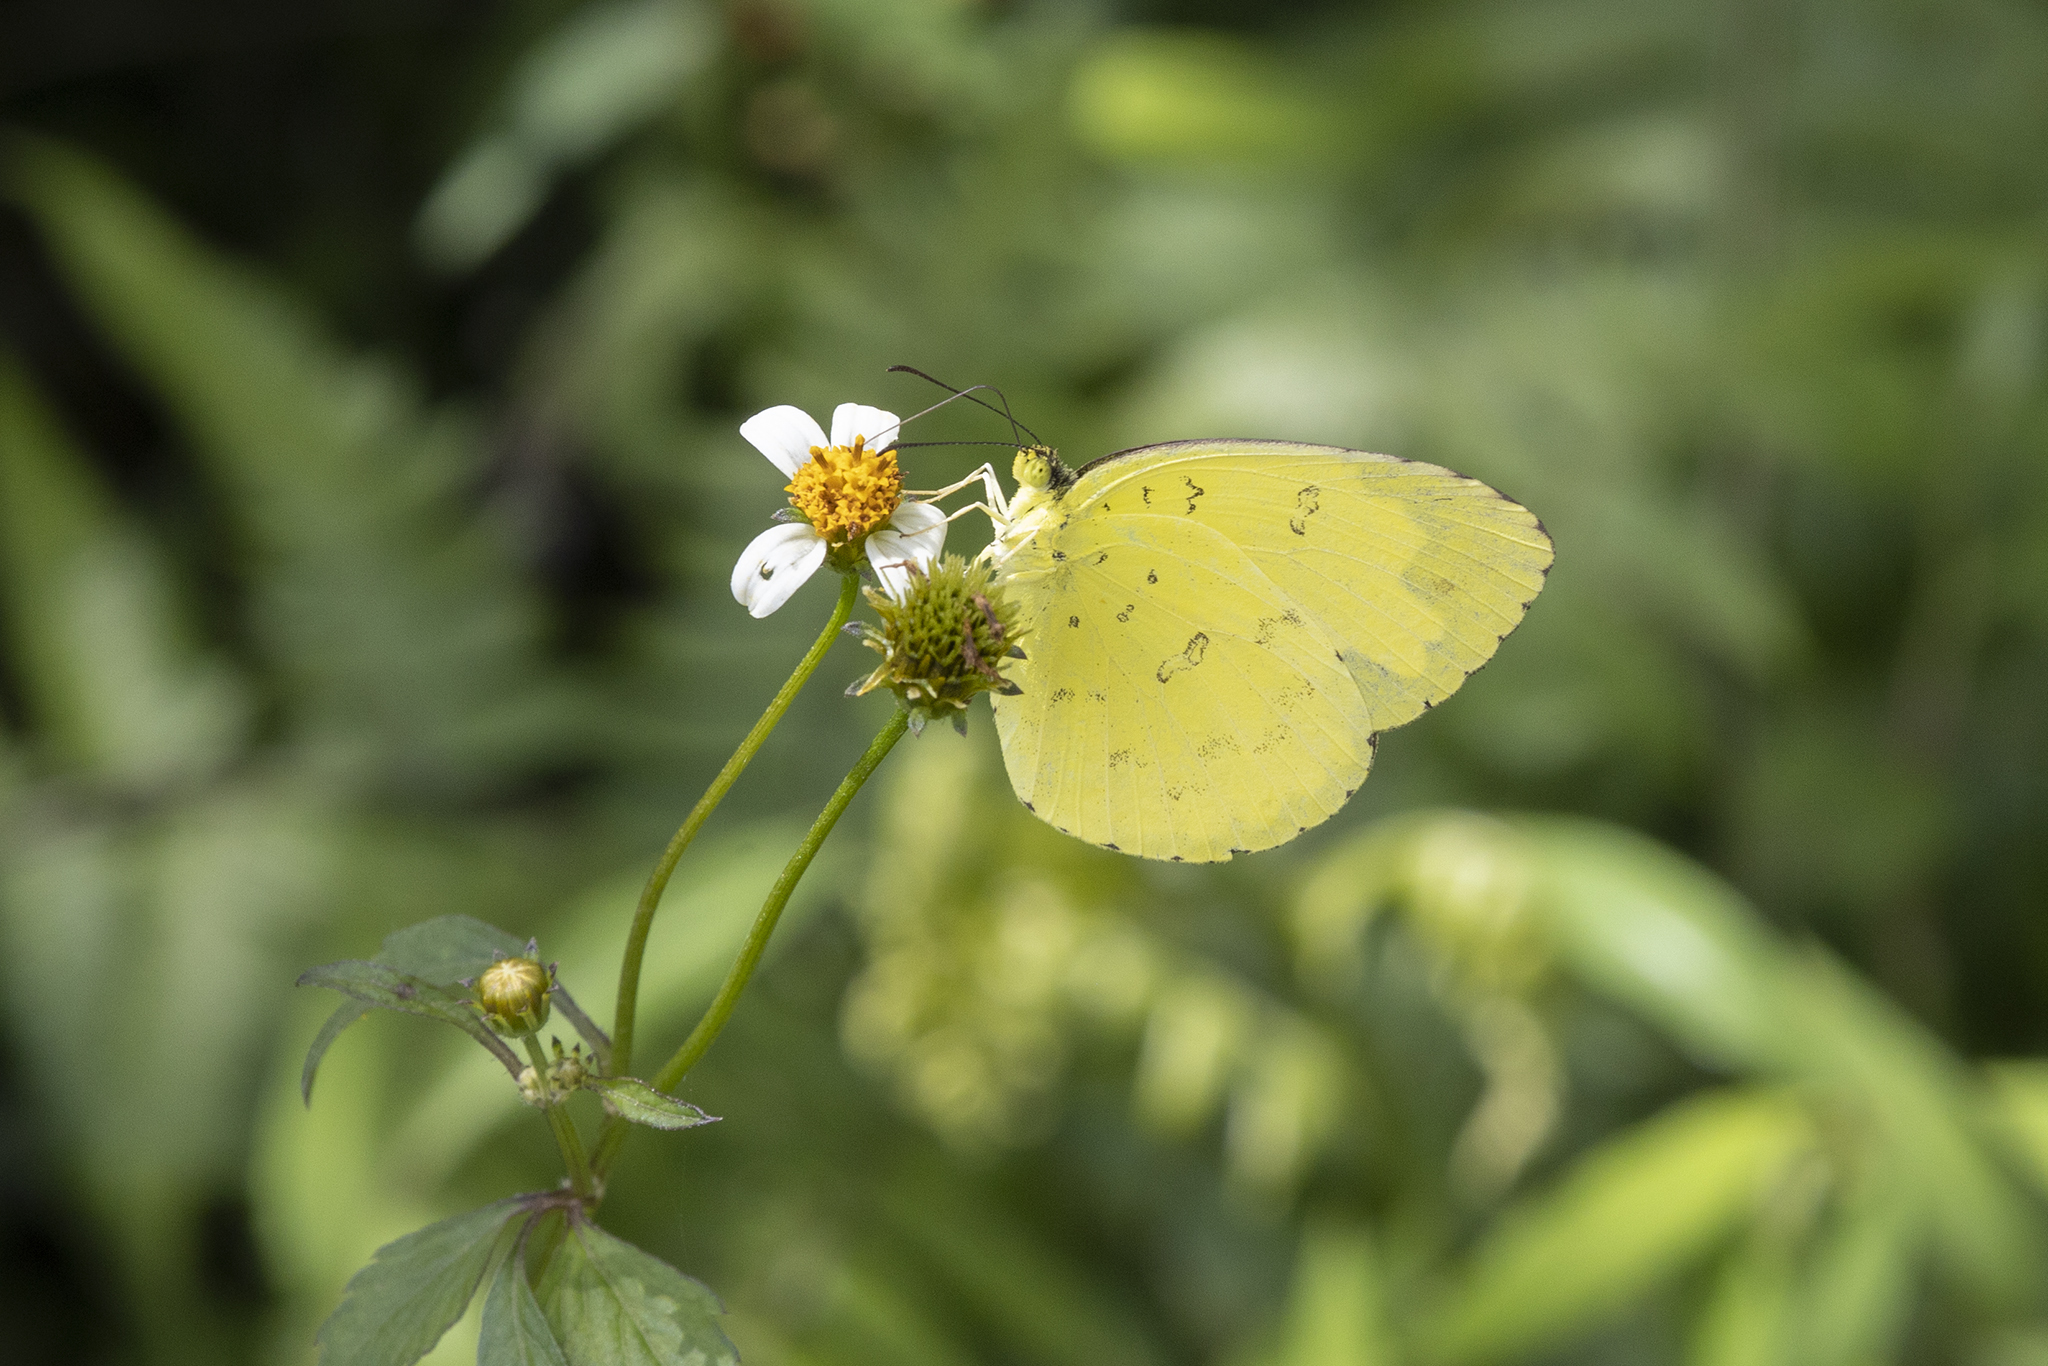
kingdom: Animalia
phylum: Arthropoda
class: Insecta
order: Lepidoptera
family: Pieridae
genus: Eurema
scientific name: Eurema blanda
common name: Three-spot grass yellow
